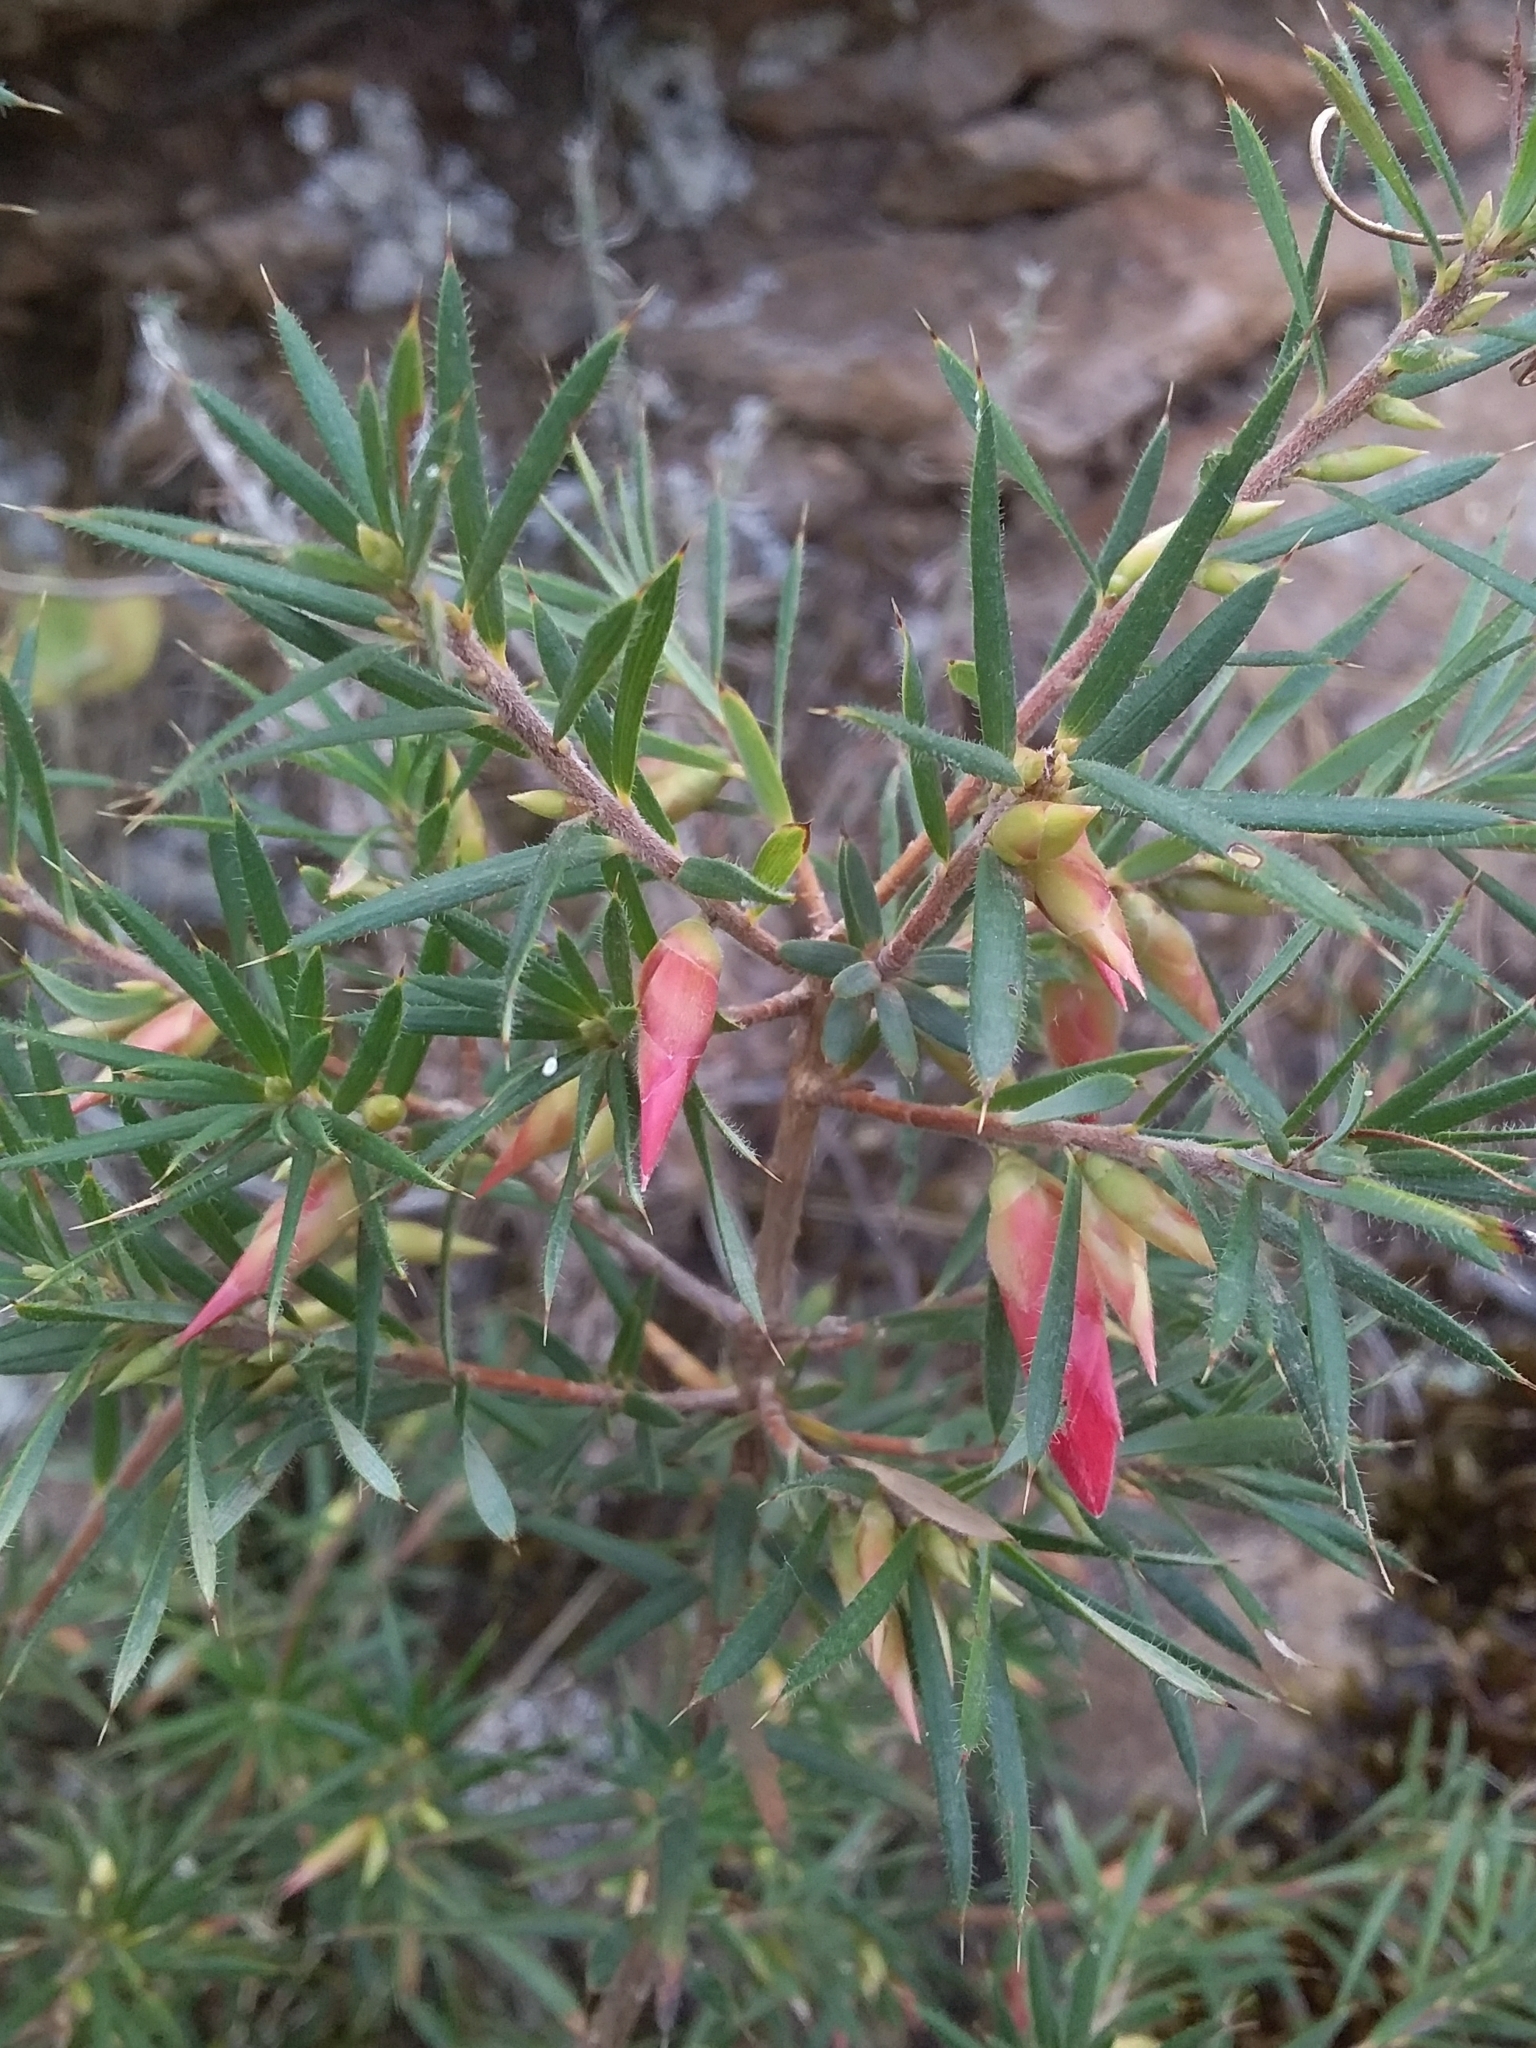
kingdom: Plantae
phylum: Tracheophyta
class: Magnoliopsida
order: Ericales
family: Ericaceae
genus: Stenanthera
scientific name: Stenanthera conostephioides
